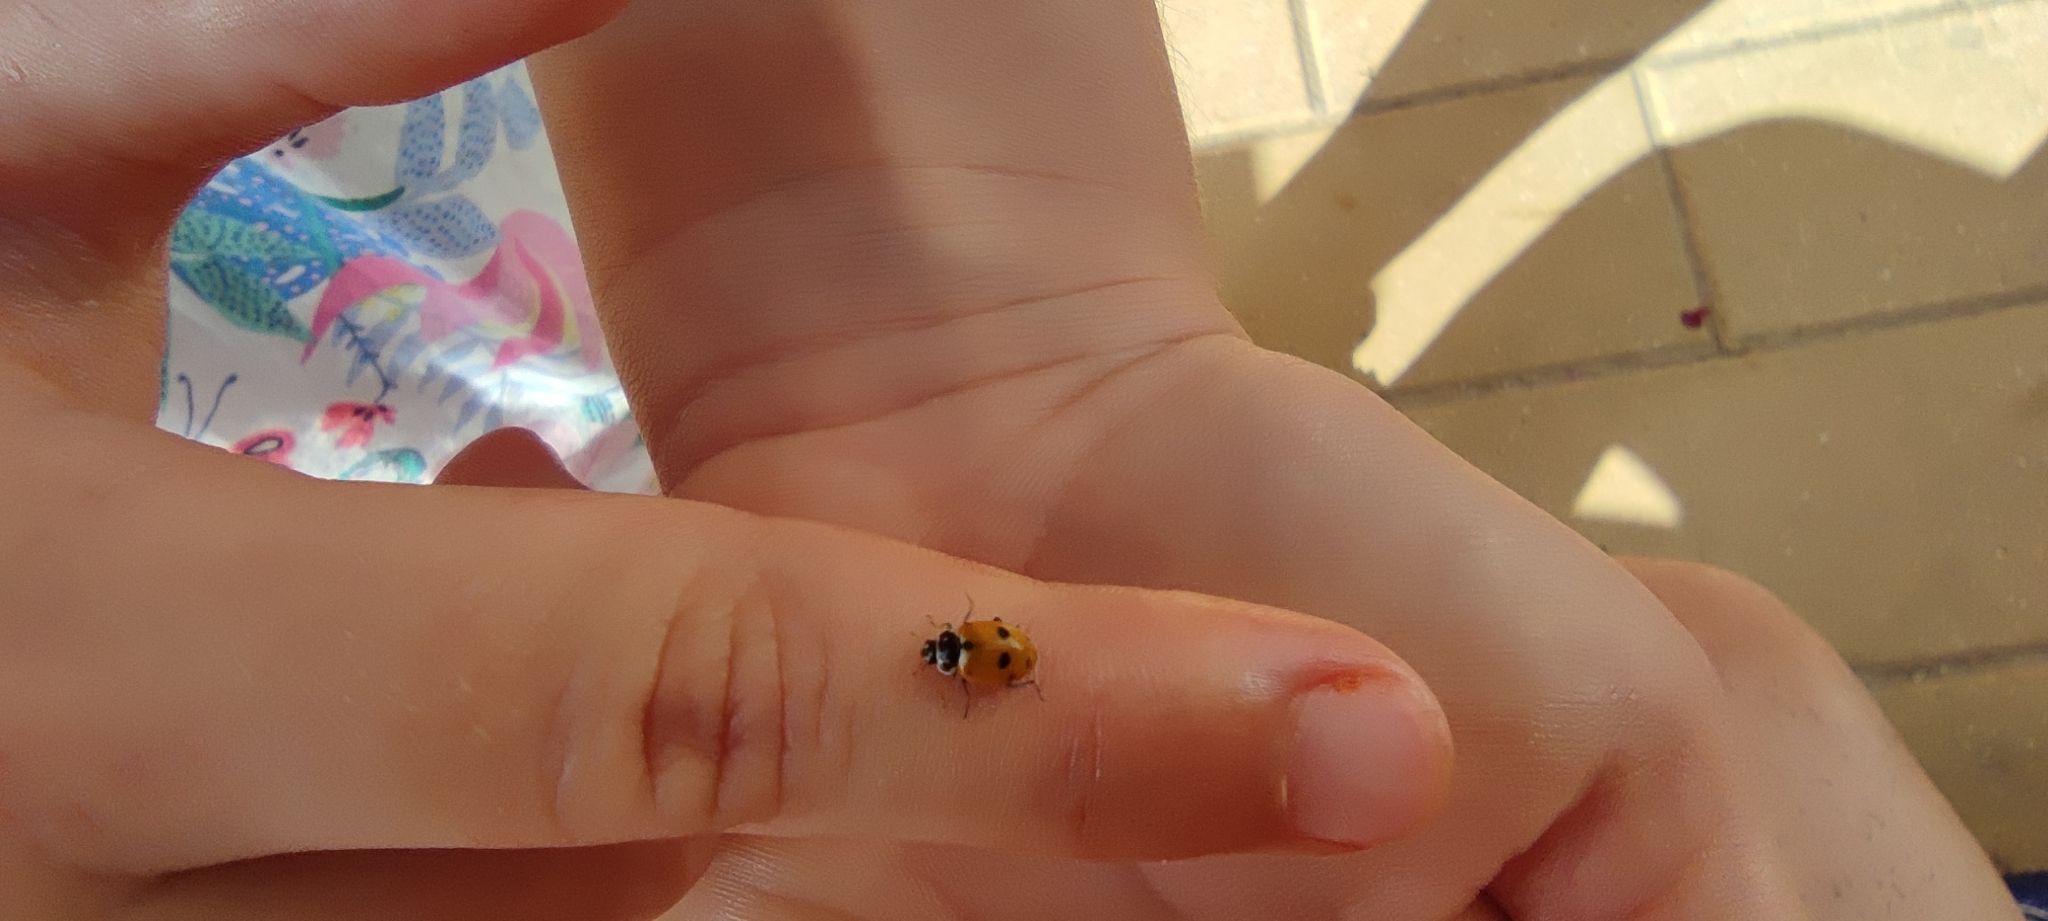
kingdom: Animalia
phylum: Arthropoda
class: Insecta
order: Coleoptera
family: Coccinellidae
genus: Hippodamia
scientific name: Hippodamia variegata
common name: Ladybird beetle
